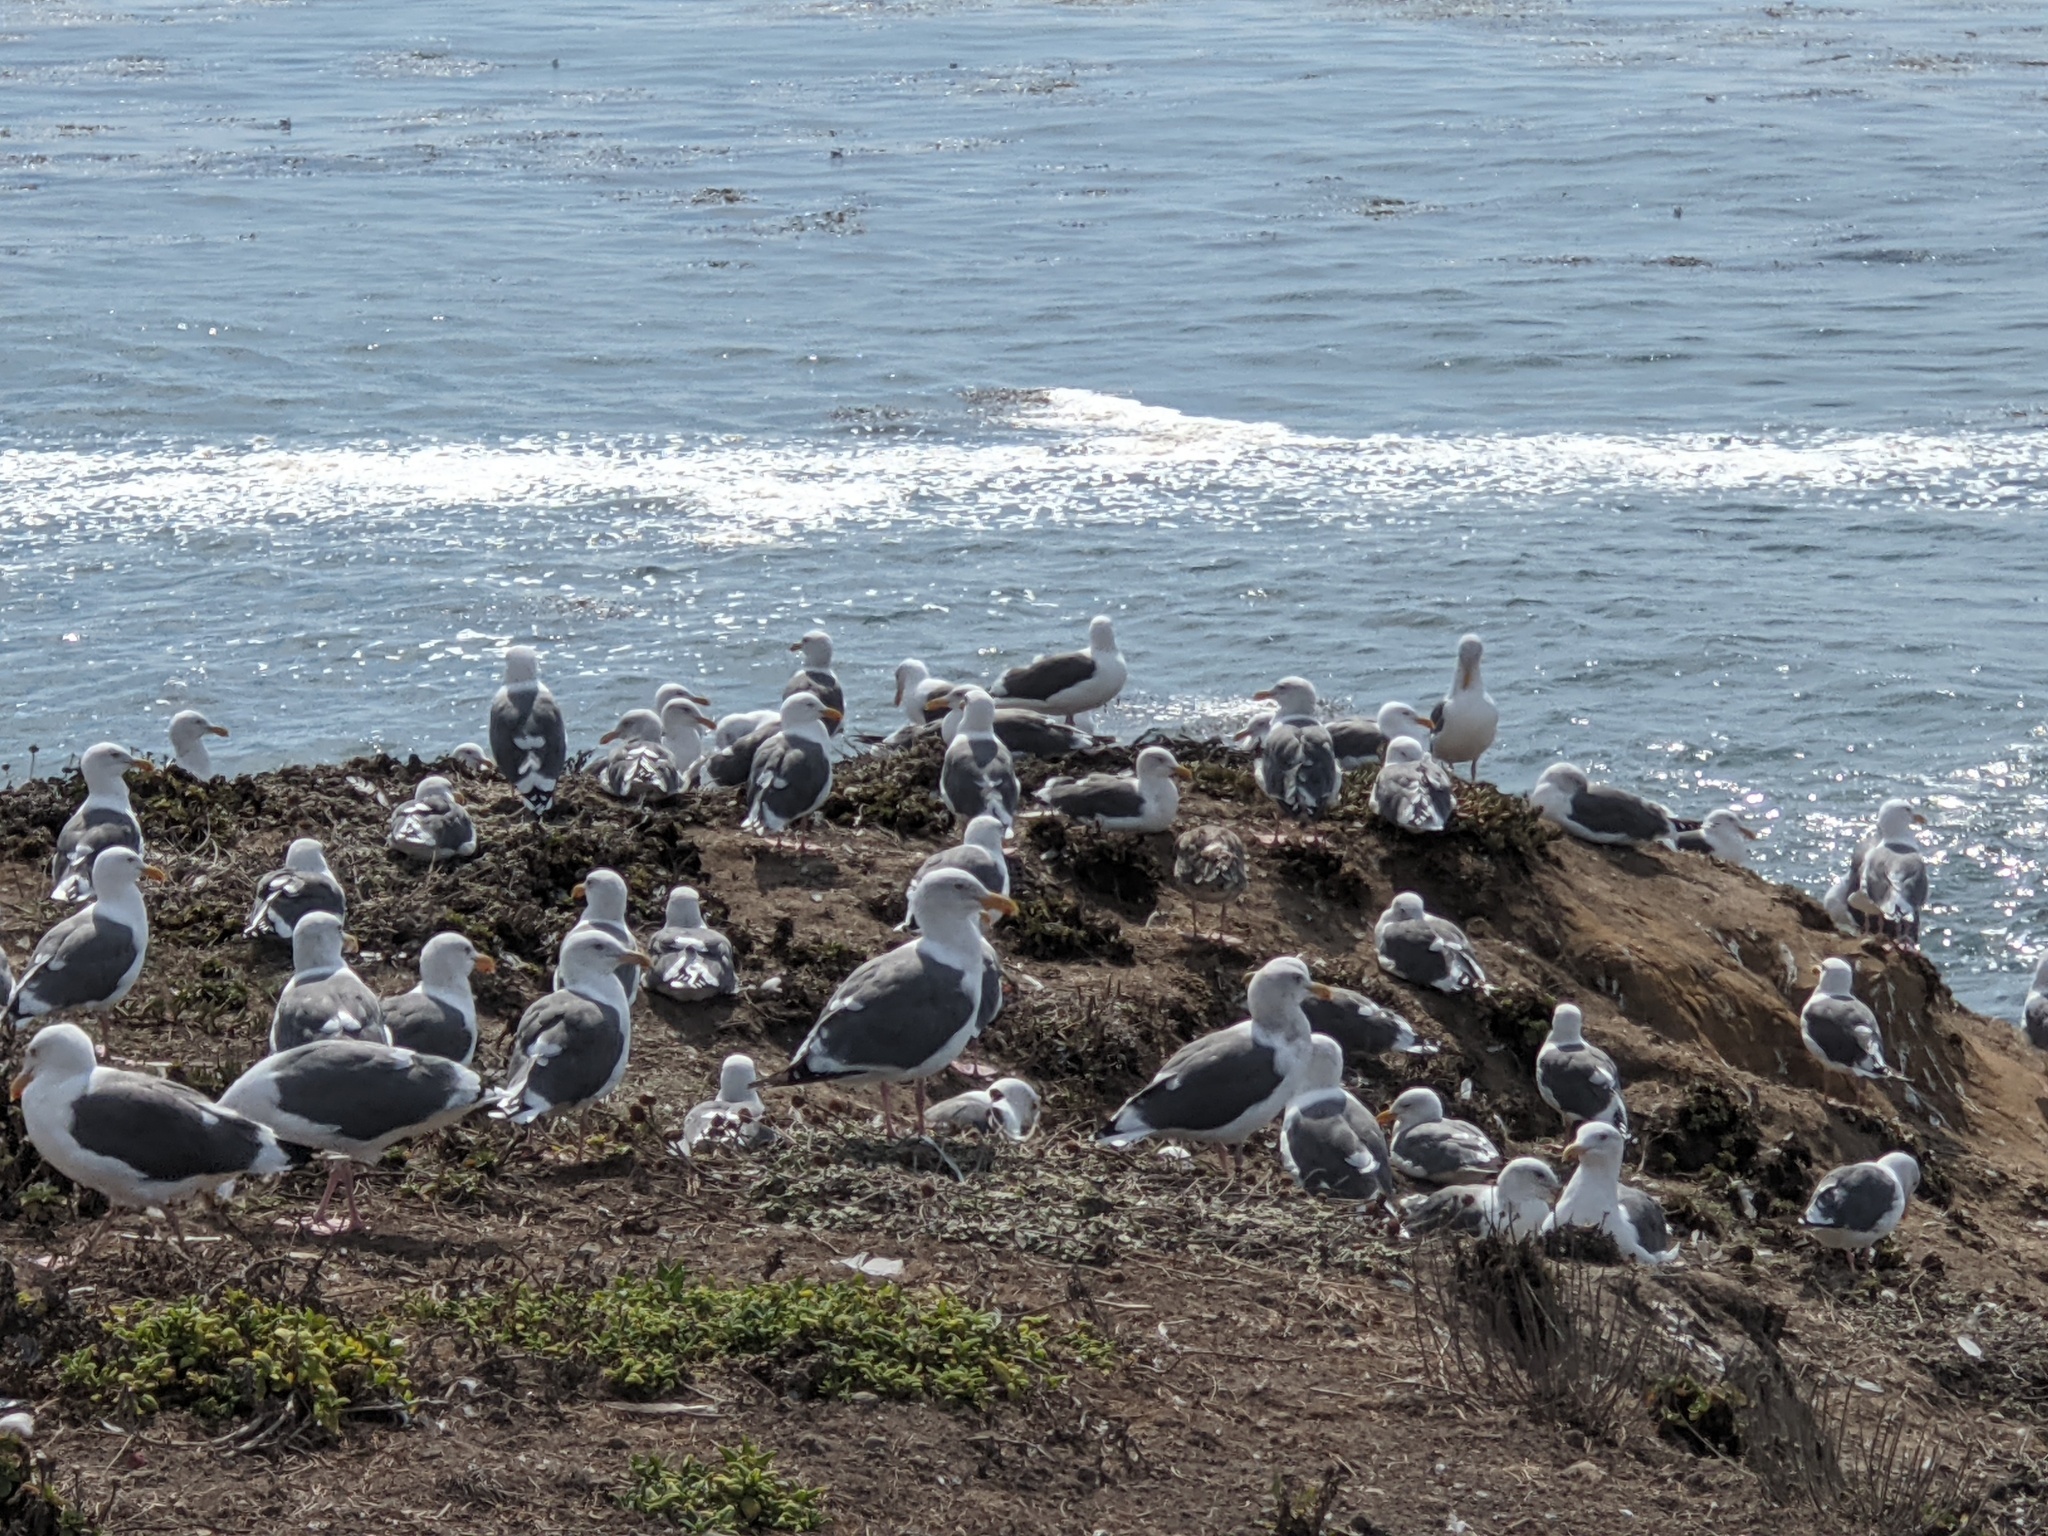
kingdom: Animalia
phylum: Chordata
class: Aves
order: Charadriiformes
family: Laridae
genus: Larus
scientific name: Larus occidentalis
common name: Western gull
